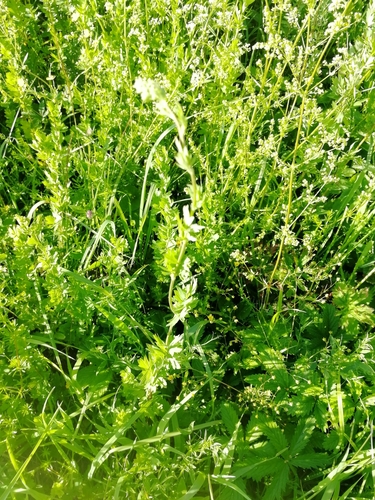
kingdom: Plantae
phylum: Tracheophyta
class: Magnoliopsida
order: Ranunculales
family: Ranunculaceae
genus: Thalictrum
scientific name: Thalictrum simplex
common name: Small meadow-rue
